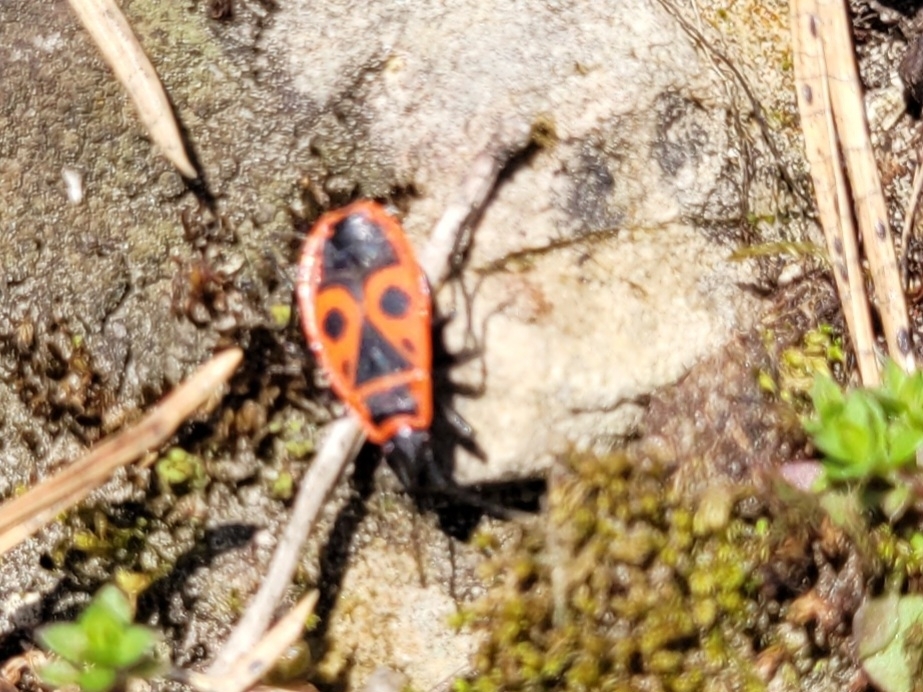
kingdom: Animalia
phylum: Arthropoda
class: Insecta
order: Hemiptera
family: Pyrrhocoridae
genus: Pyrrhocoris
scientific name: Pyrrhocoris apterus
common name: Firebug
